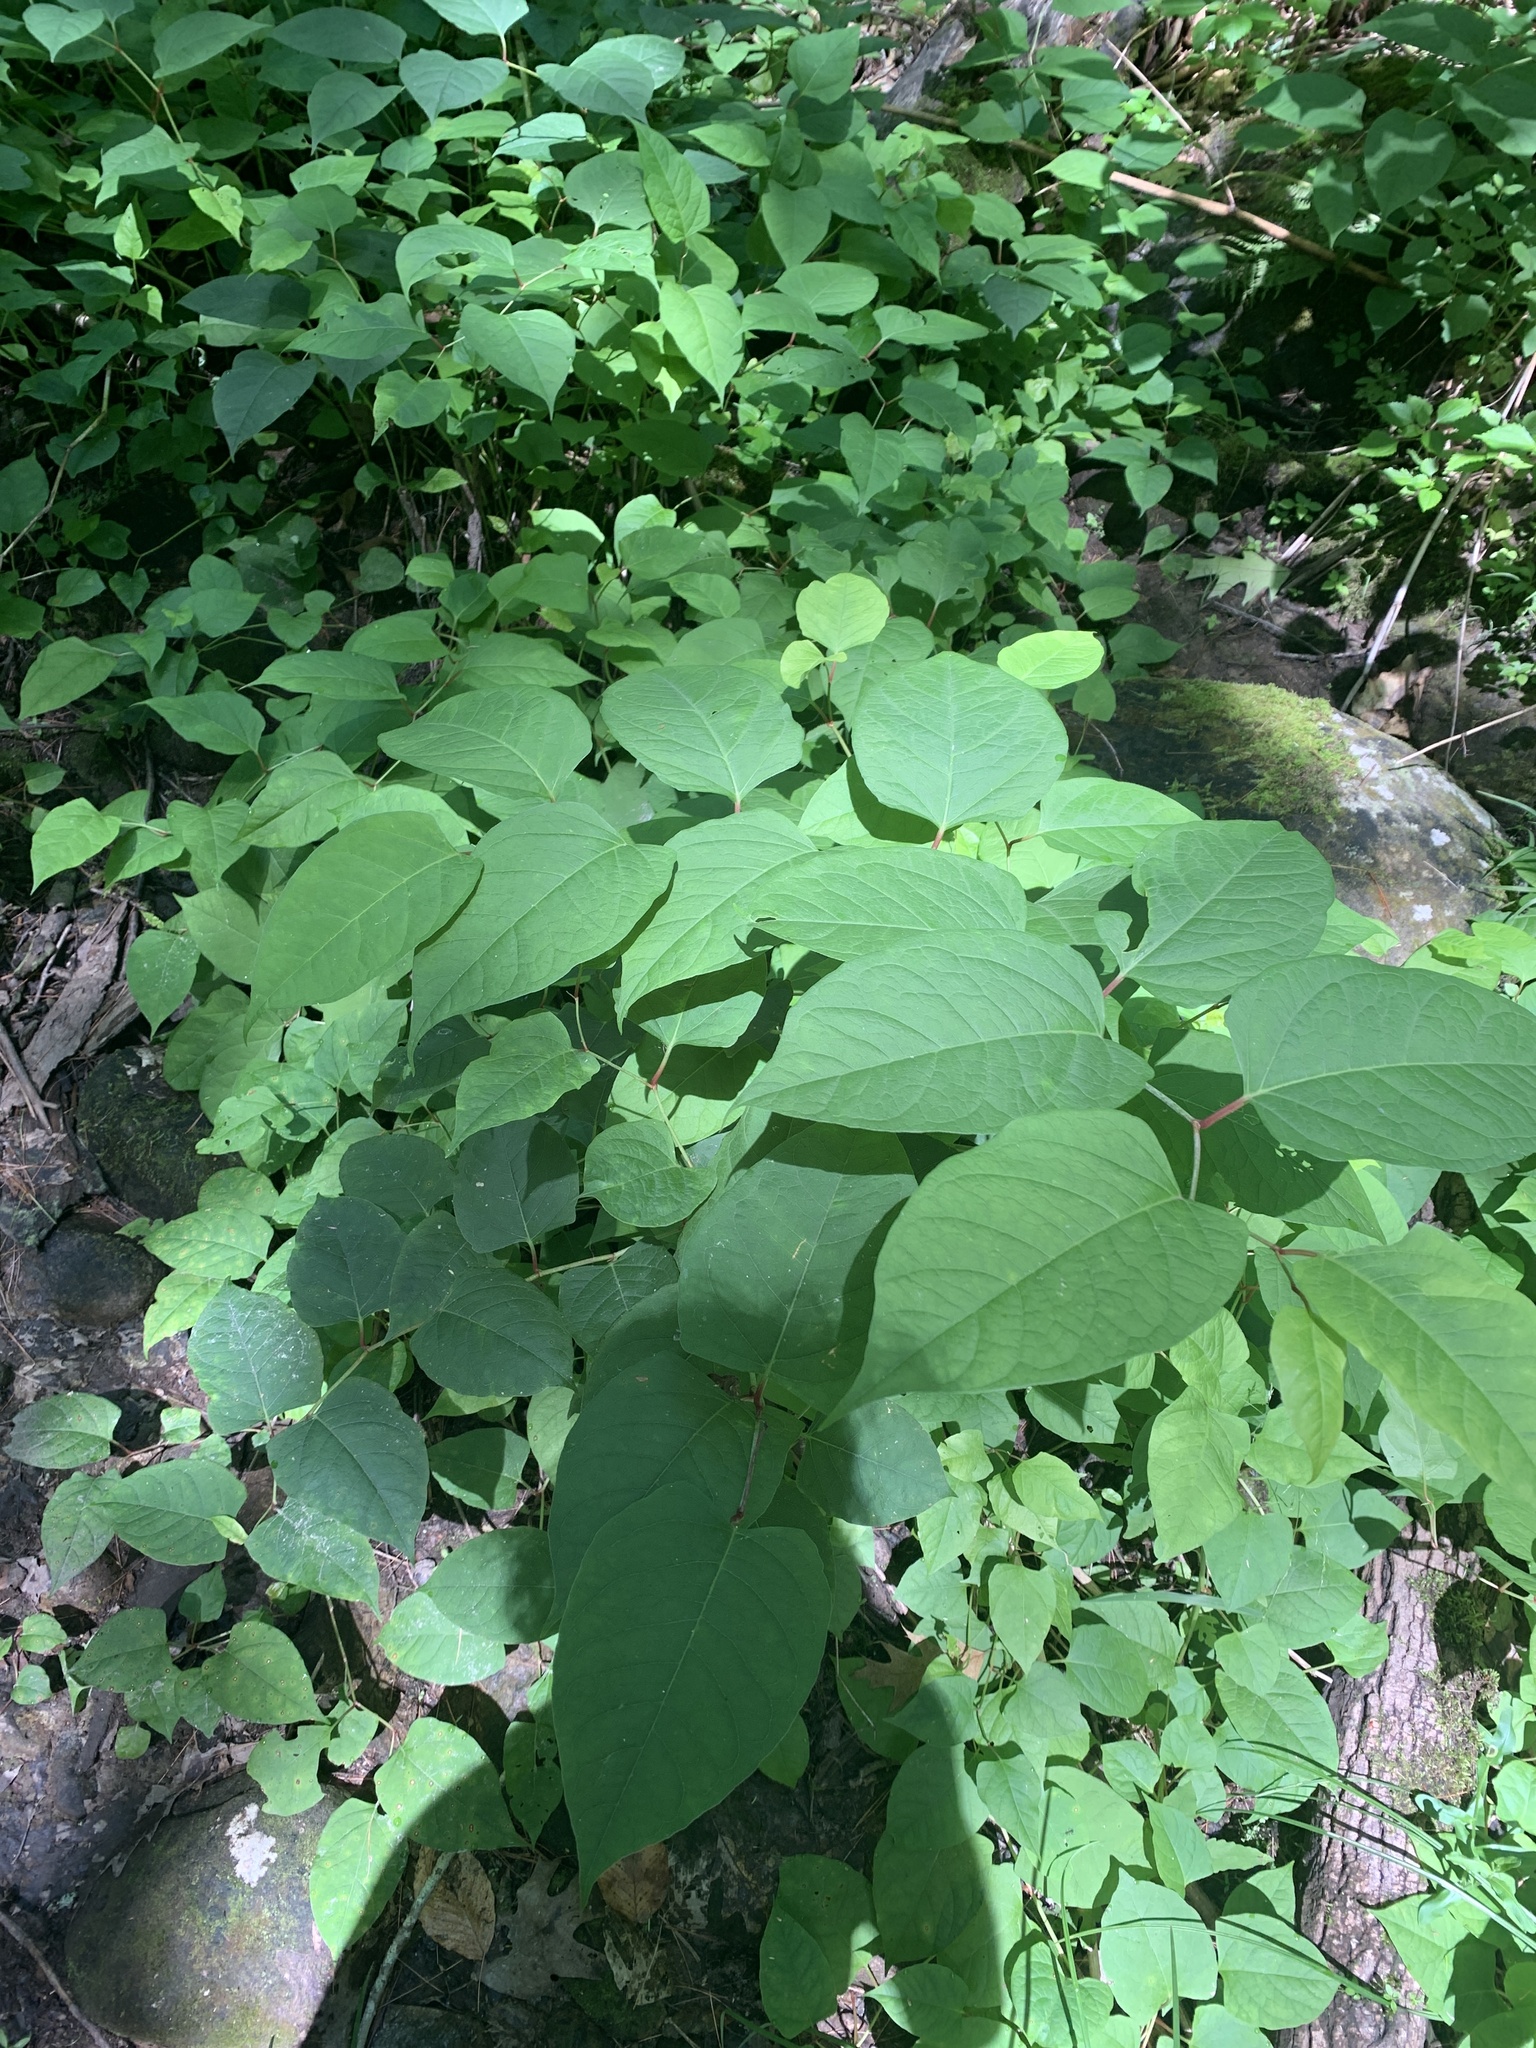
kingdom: Plantae
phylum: Tracheophyta
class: Magnoliopsida
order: Caryophyllales
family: Polygonaceae
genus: Reynoutria
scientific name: Reynoutria japonica
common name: Japanese knotweed
